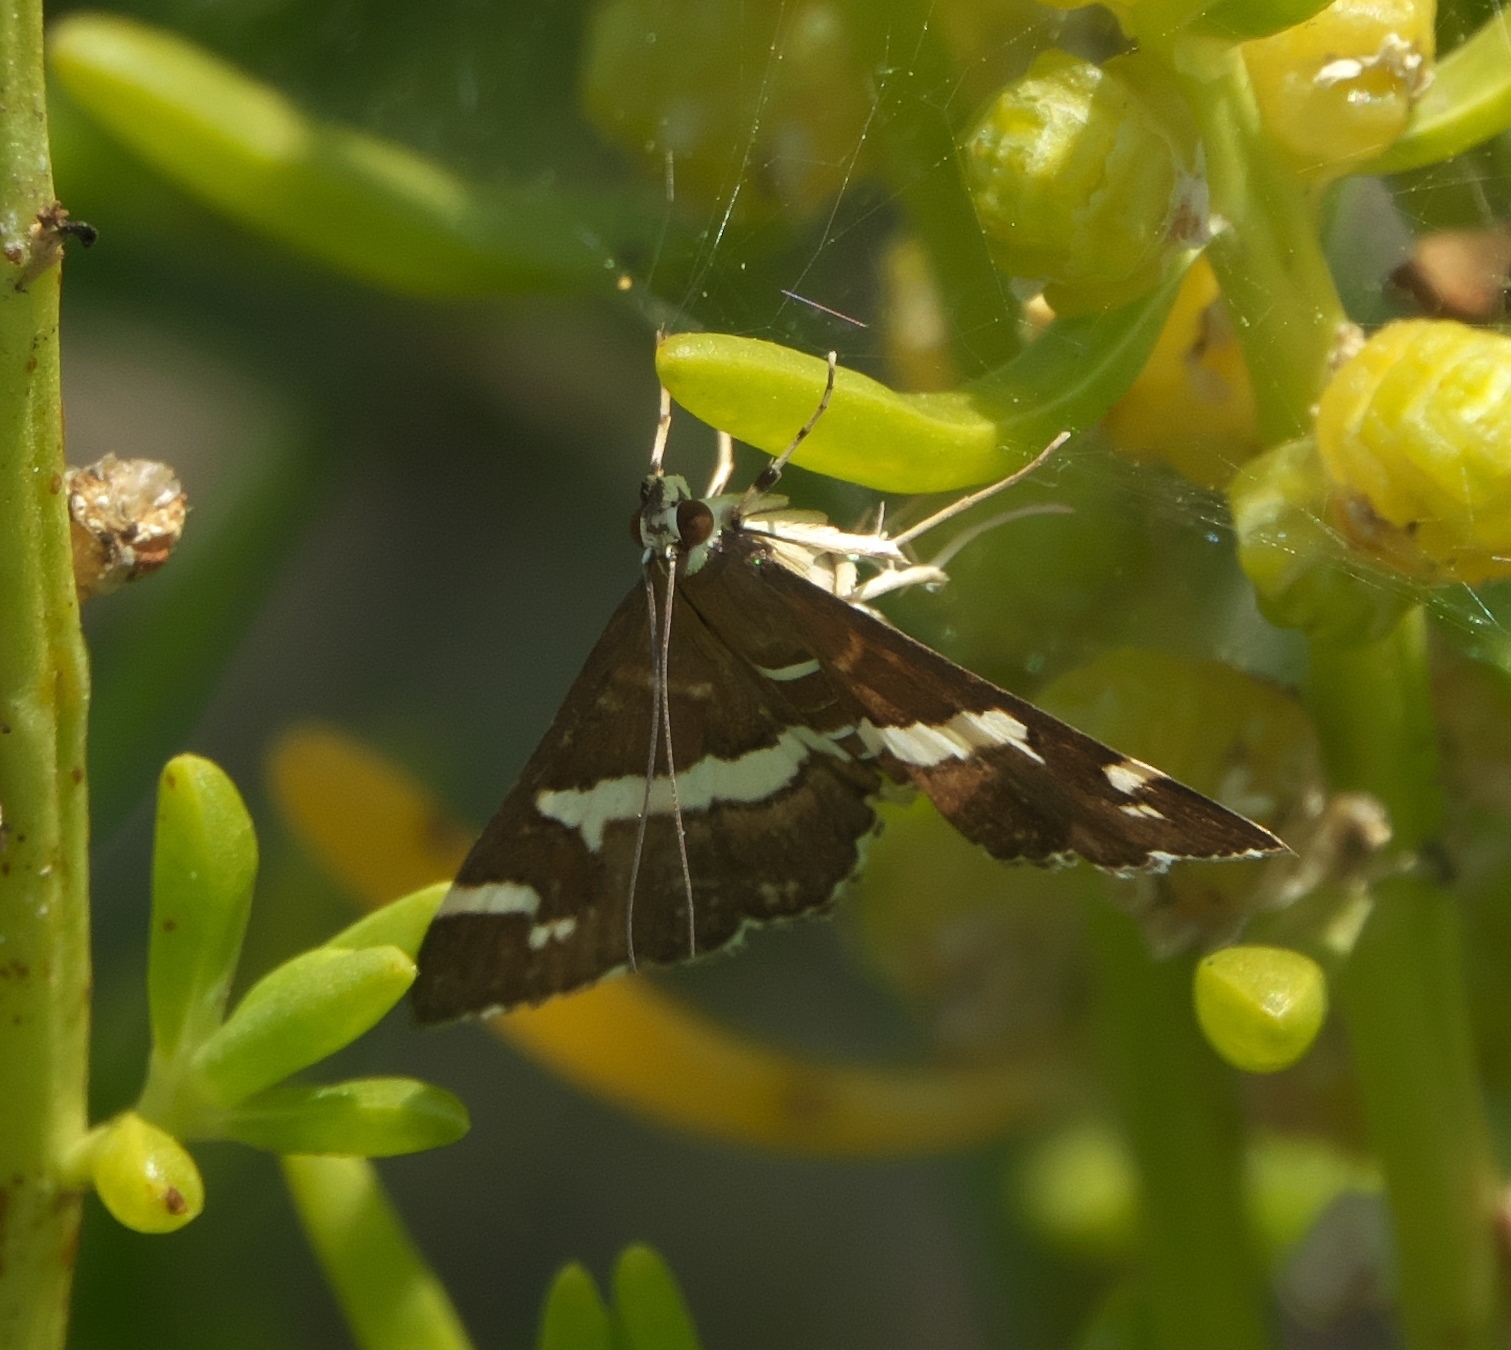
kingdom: Animalia
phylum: Arthropoda
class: Insecta
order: Lepidoptera
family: Crambidae
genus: Spoladea
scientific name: Spoladea recurvalis
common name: Beet webworm moth
